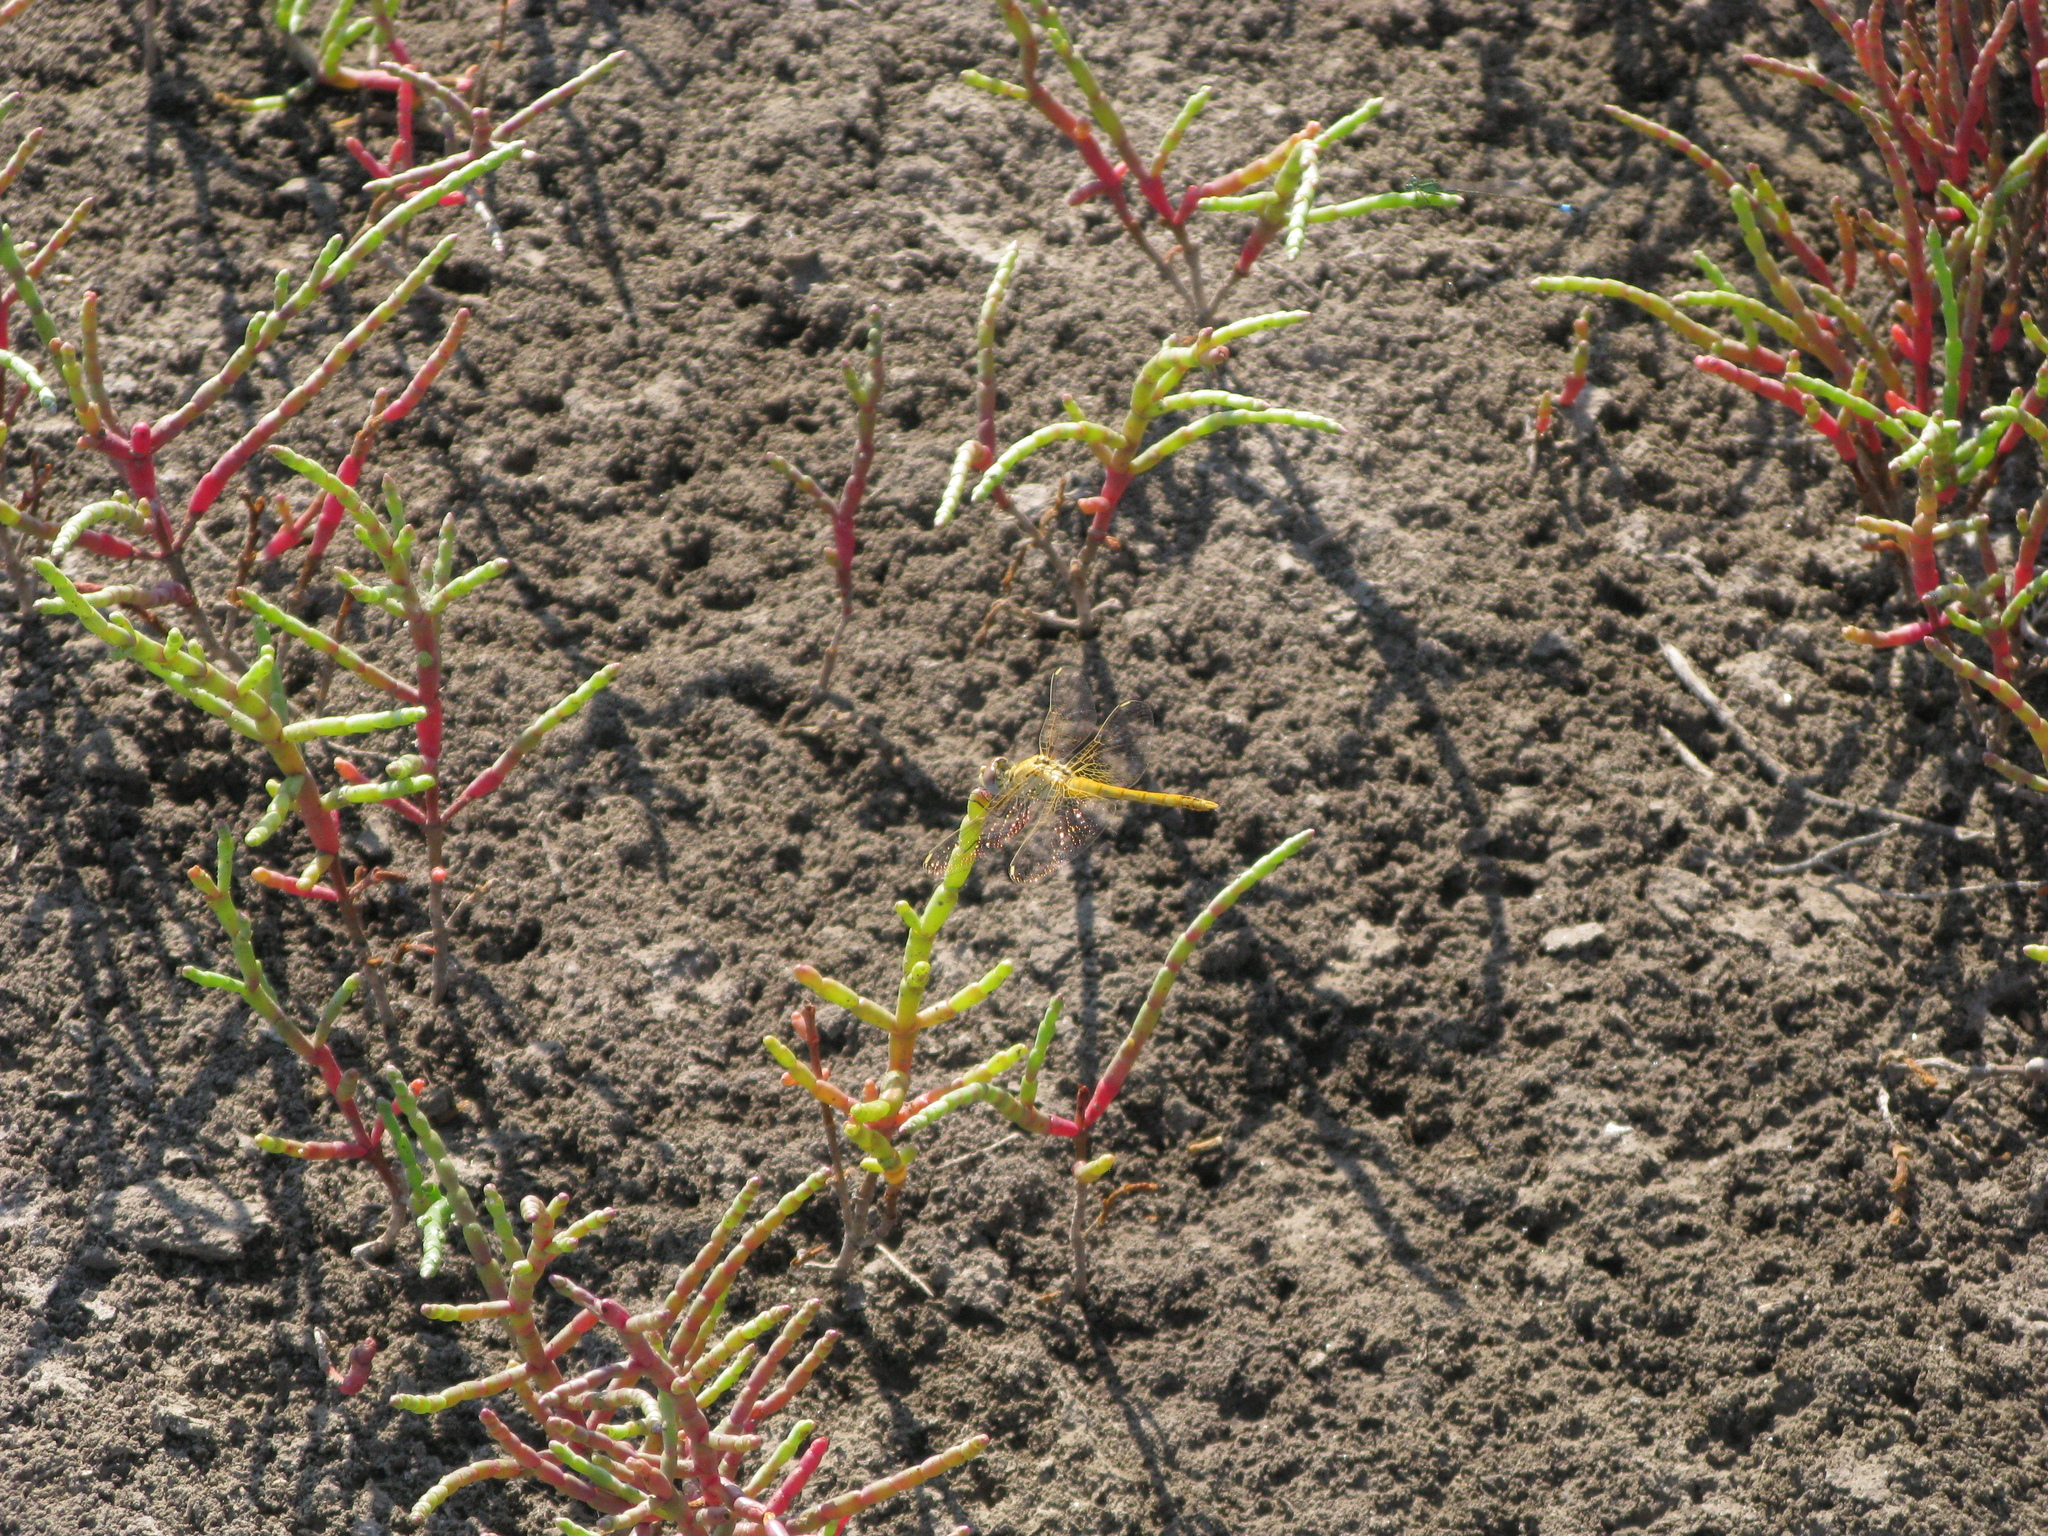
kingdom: Animalia
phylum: Arthropoda
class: Insecta
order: Odonata
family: Libellulidae
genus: Sympetrum
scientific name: Sympetrum fonscolombii
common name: Red-veined darter
